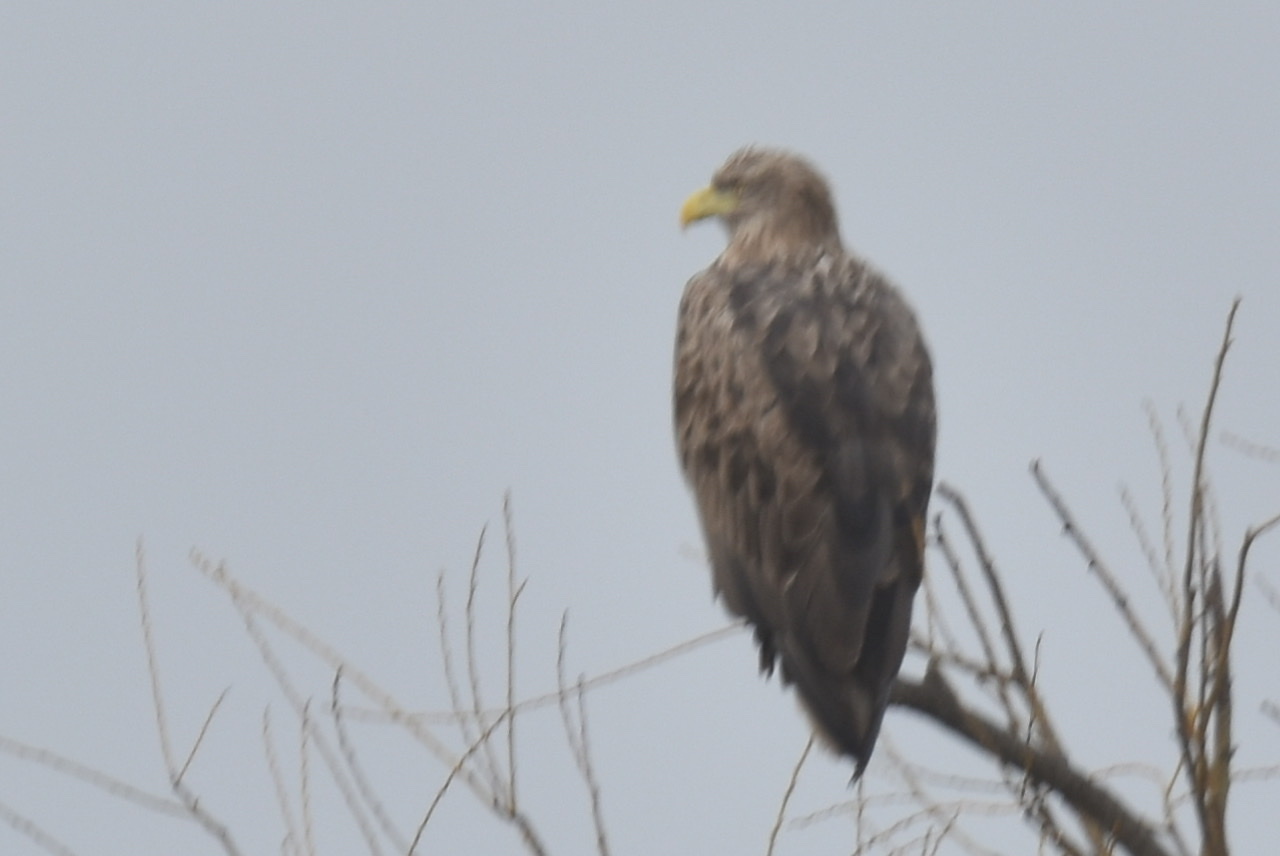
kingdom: Animalia
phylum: Chordata
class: Aves
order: Accipitriformes
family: Accipitridae
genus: Haliaeetus
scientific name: Haliaeetus albicilla
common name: White-tailed eagle
